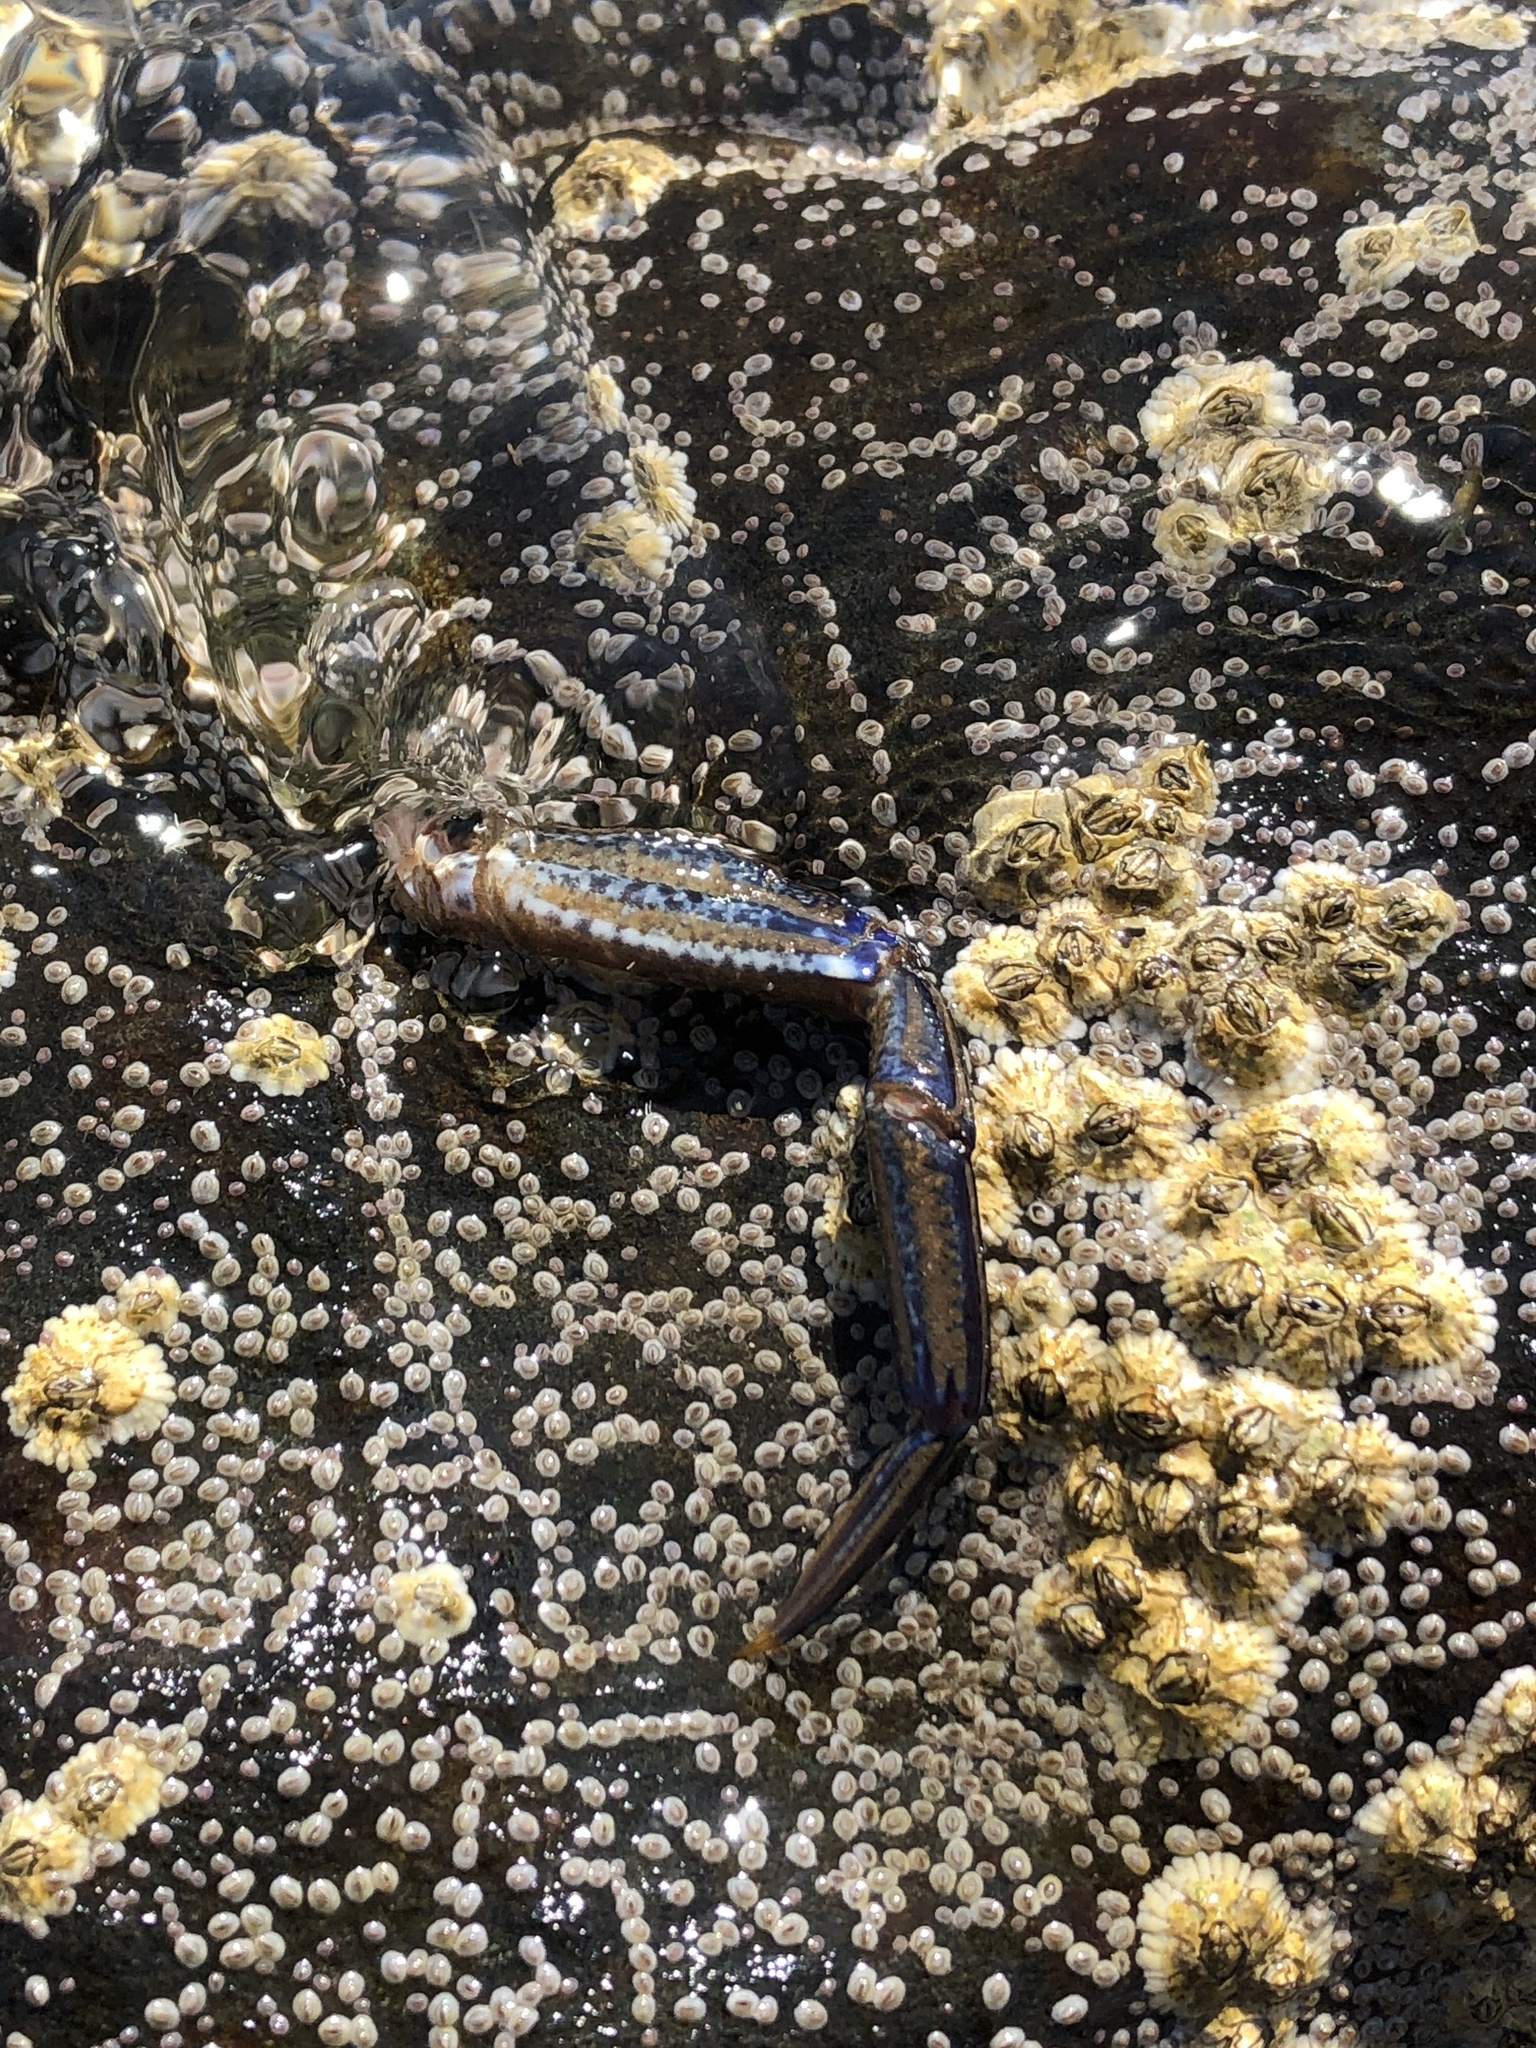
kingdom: Animalia
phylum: Arthropoda
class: Malacostraca
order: Decapoda
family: Polybiidae
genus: Necora
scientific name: Necora puber
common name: Velvet swimming crab
